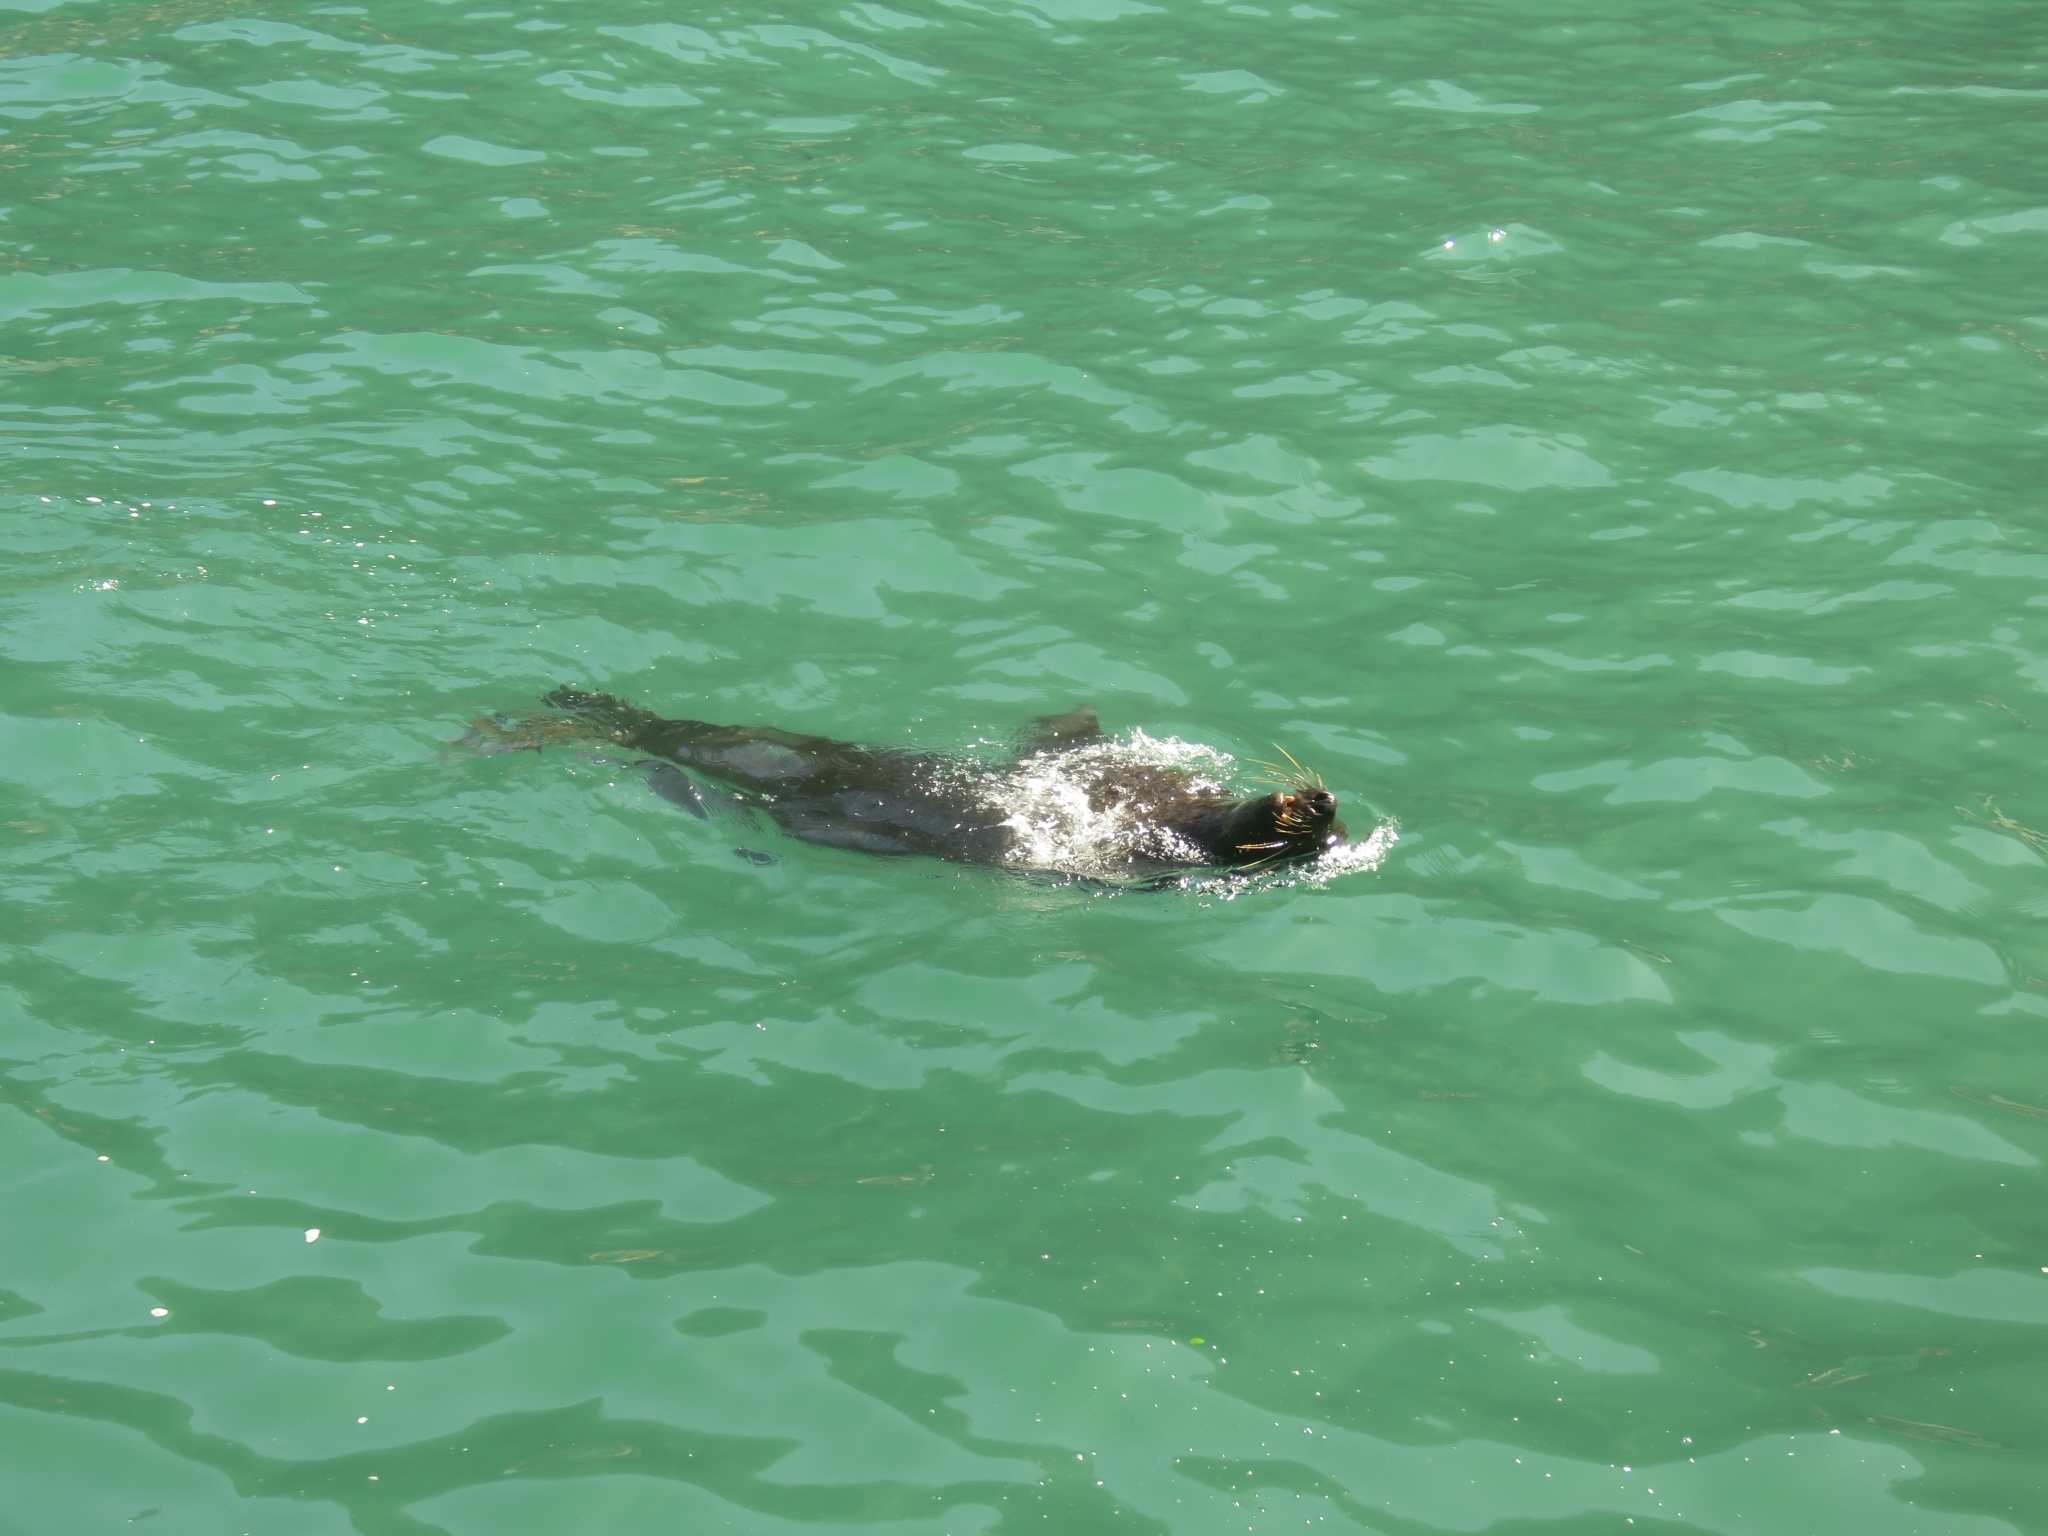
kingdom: Animalia
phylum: Chordata
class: Mammalia
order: Carnivora
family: Otariidae
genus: Arctocephalus
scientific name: Arctocephalus pusillus
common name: Brown fur seal
